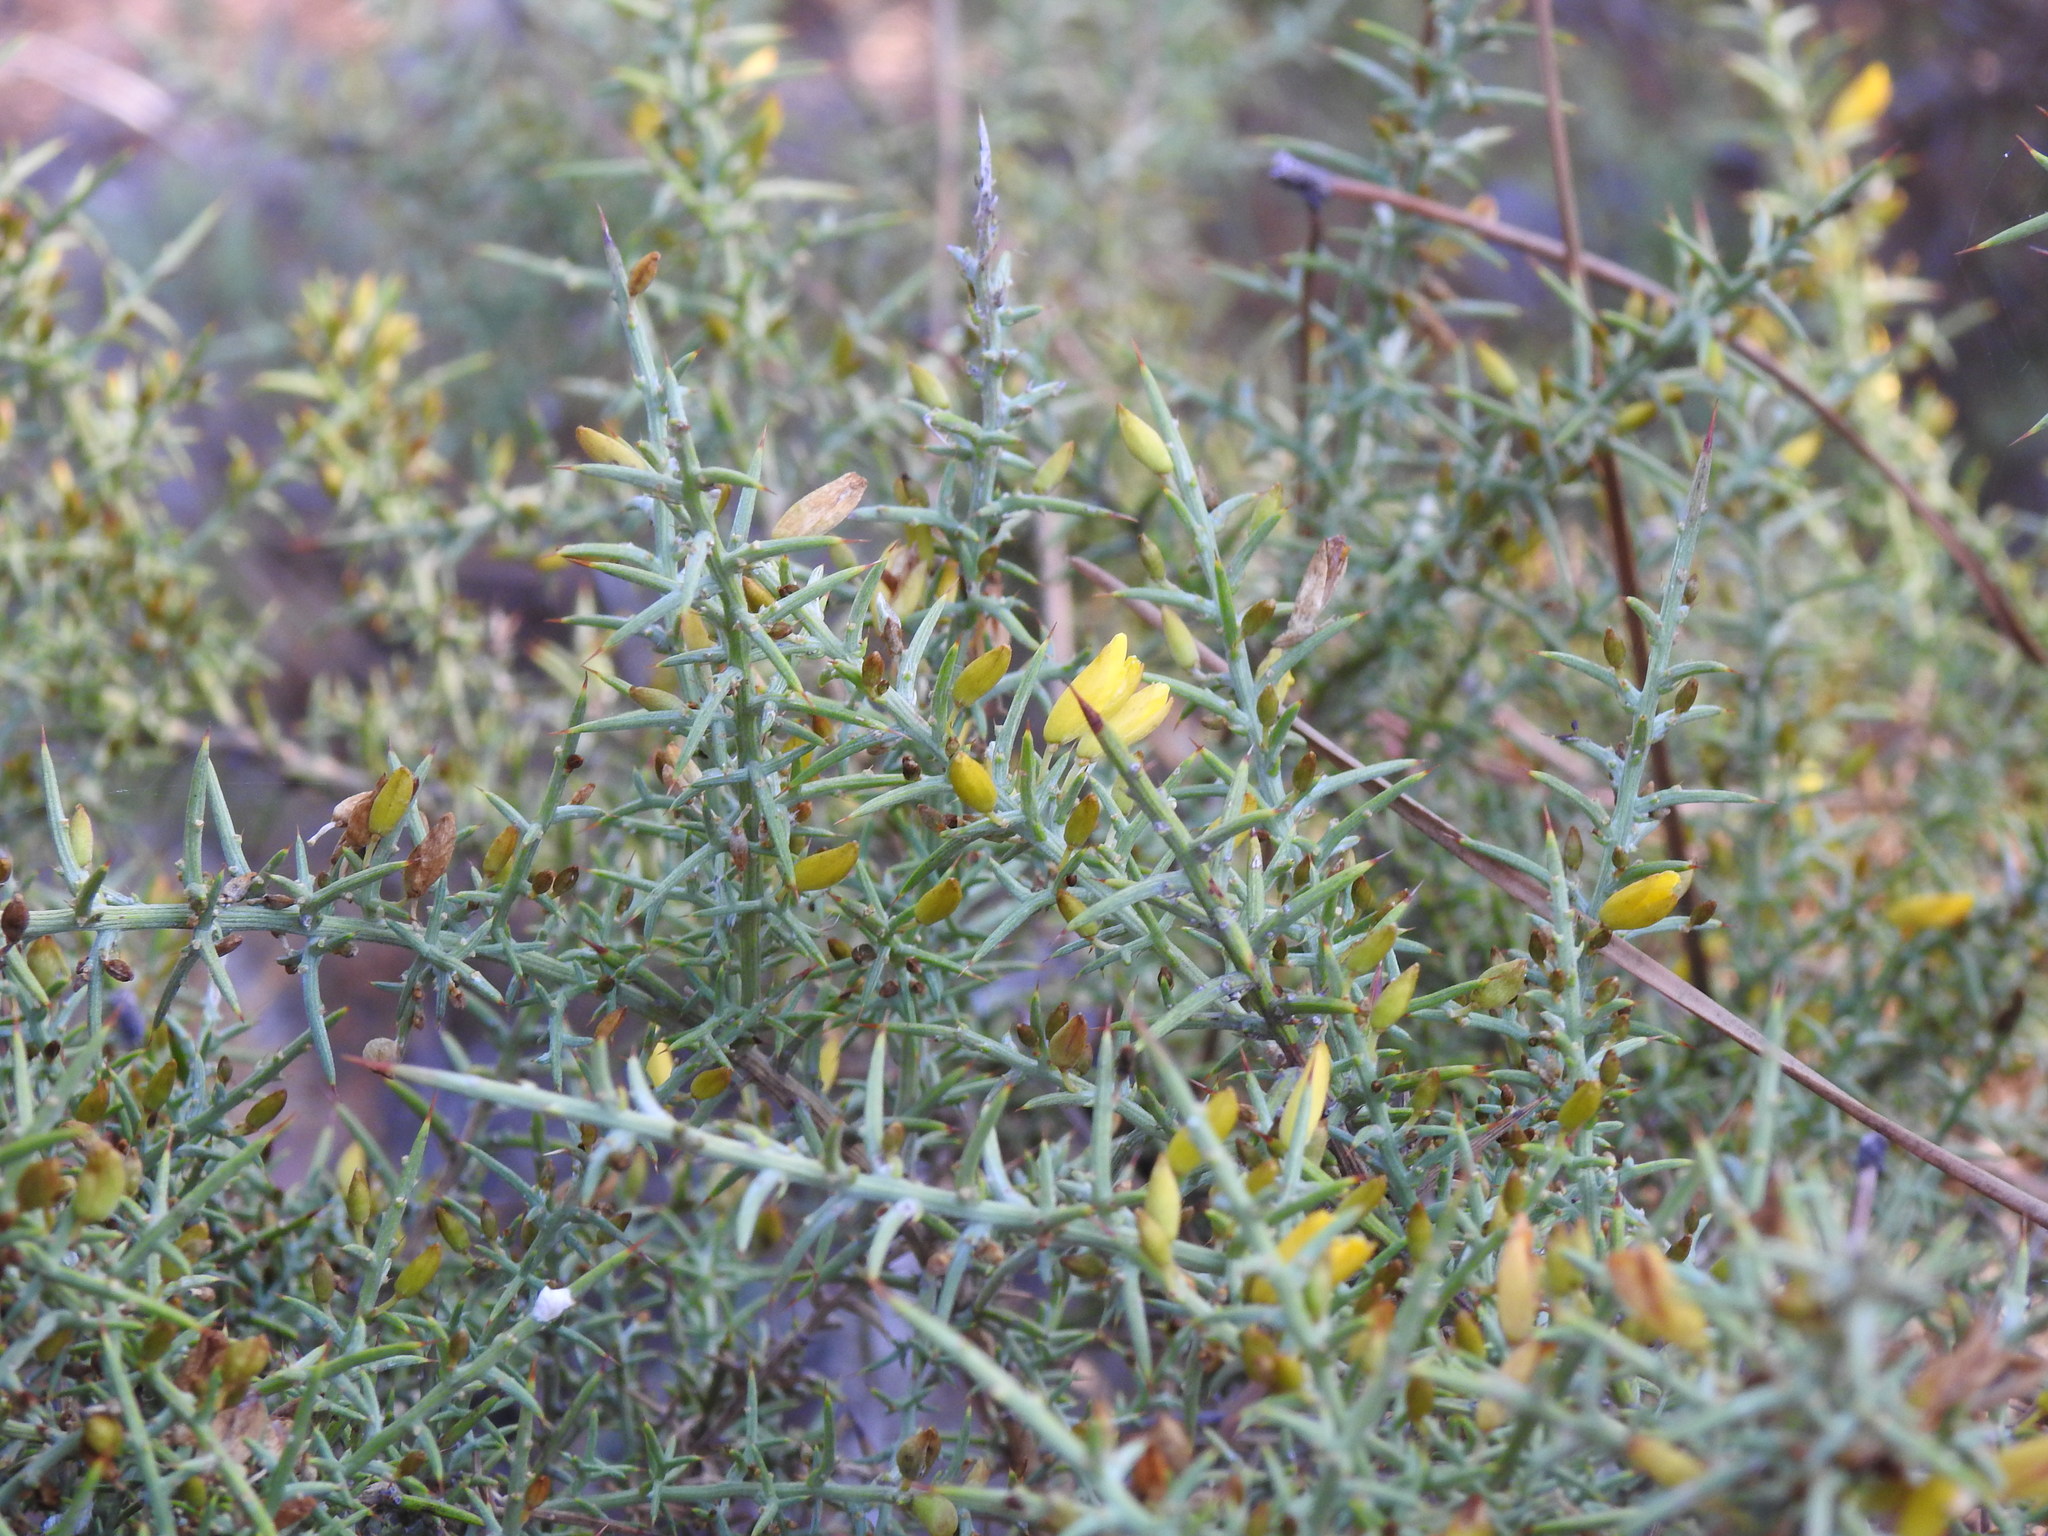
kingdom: Plantae
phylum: Tracheophyta
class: Magnoliopsida
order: Fabales
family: Fabaceae
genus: Ulex
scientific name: Ulex argenteus
